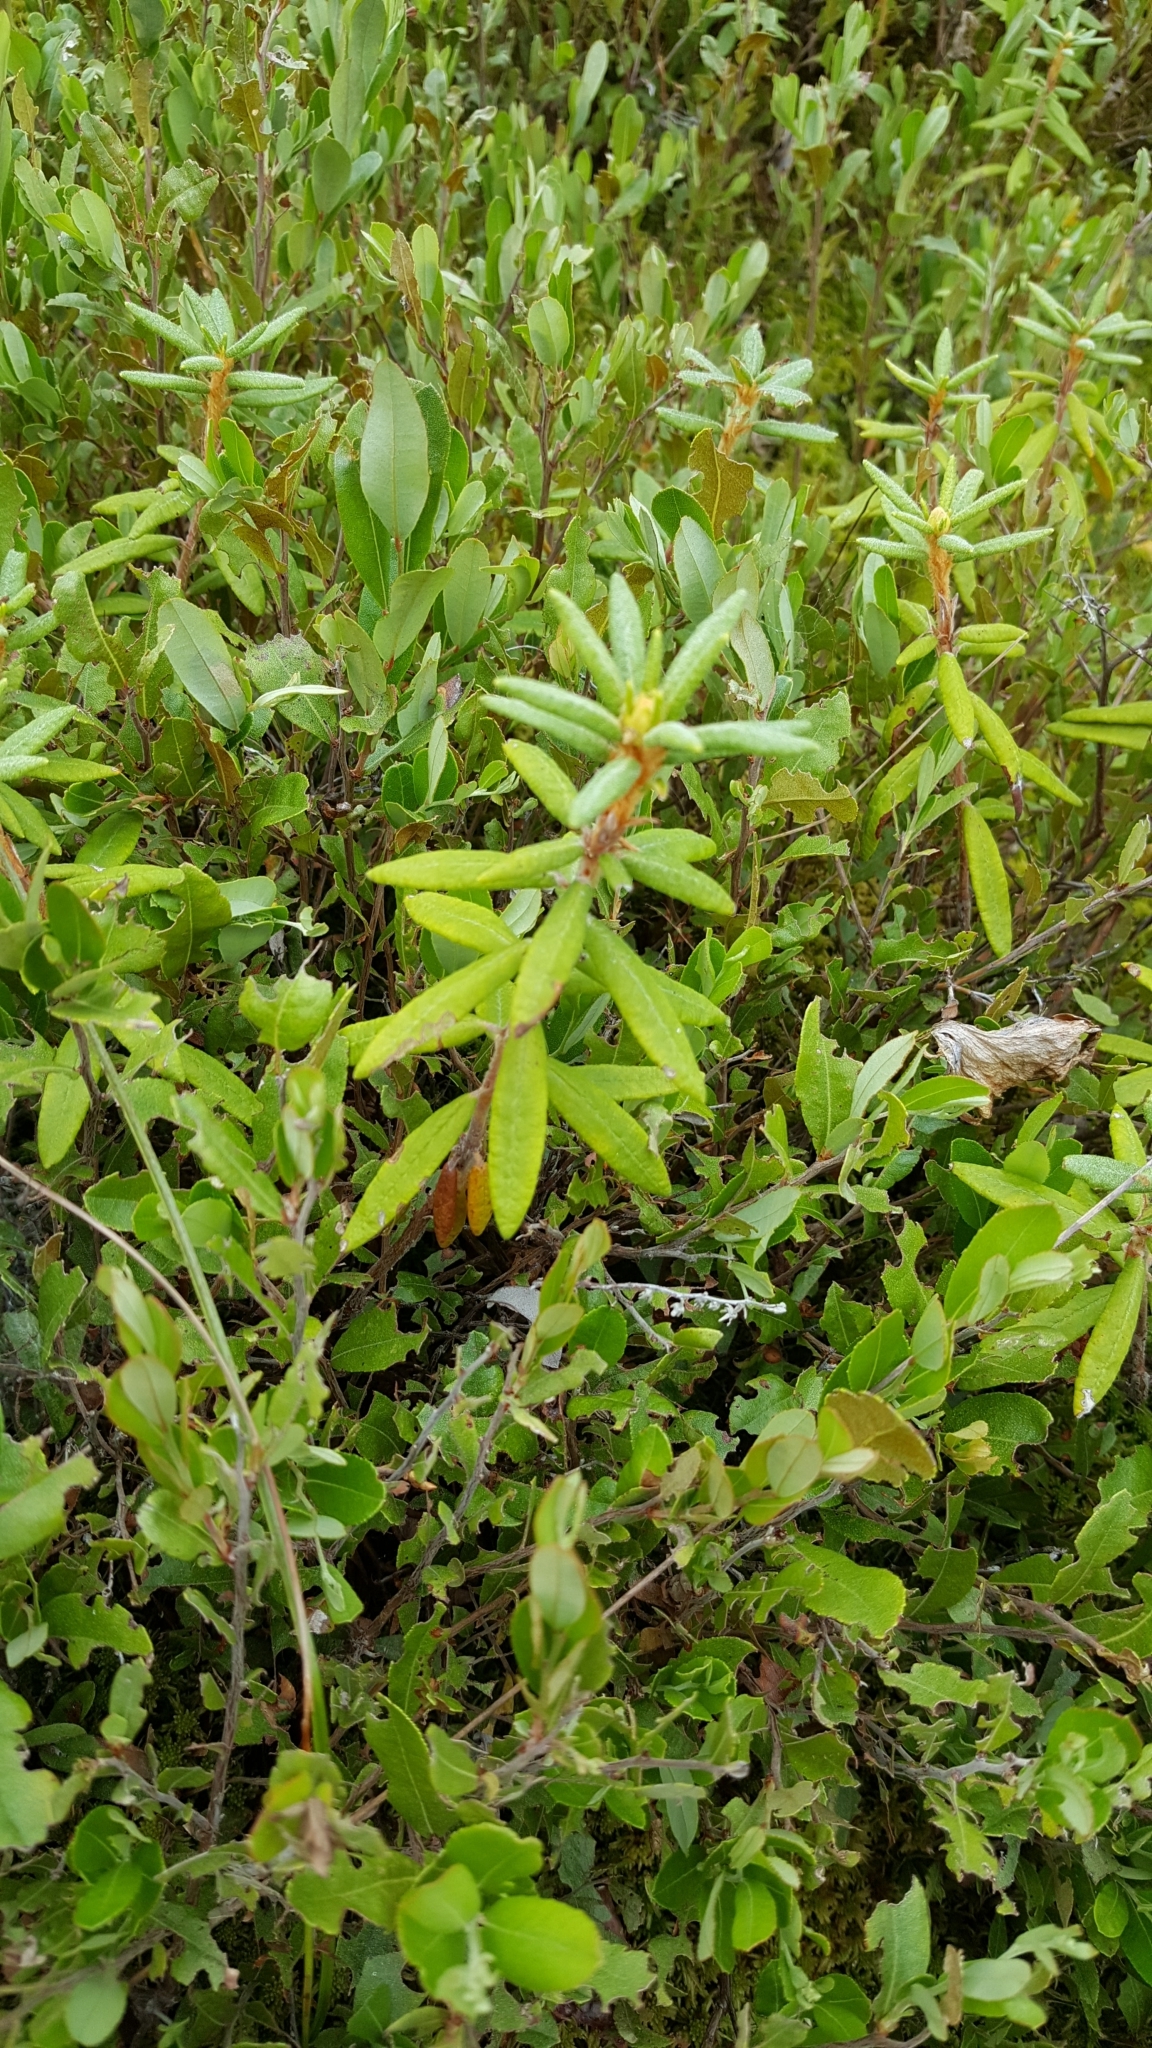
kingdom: Plantae
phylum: Tracheophyta
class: Magnoliopsida
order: Ericales
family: Ericaceae
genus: Rhododendron
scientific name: Rhododendron groenlandicum
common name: Bog labrador tea
